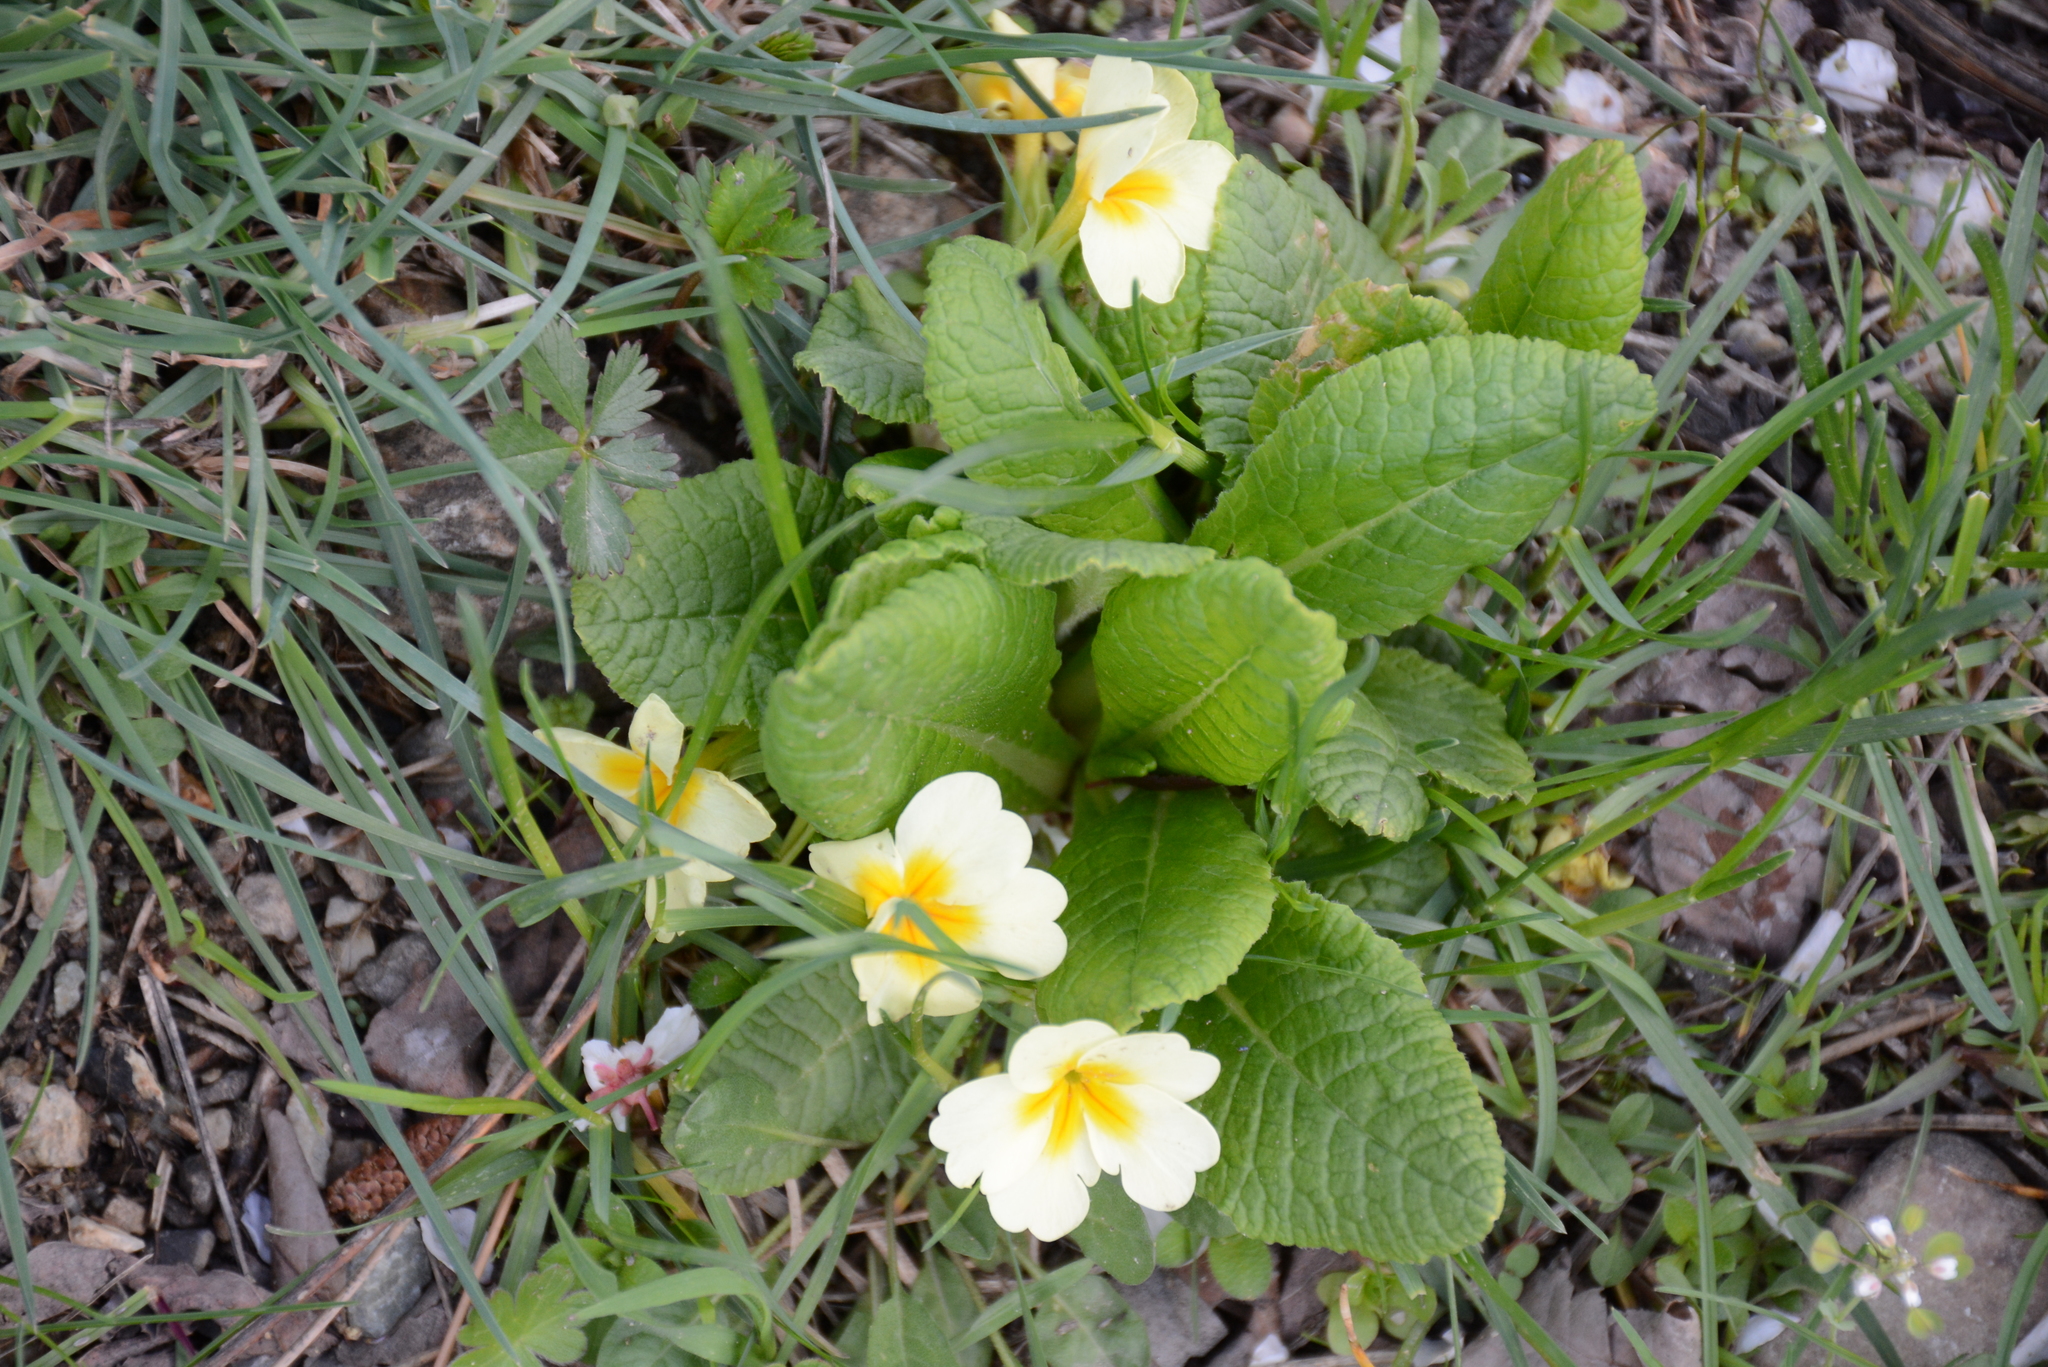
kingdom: Plantae
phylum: Tracheophyta
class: Magnoliopsida
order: Ericales
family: Primulaceae
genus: Primula
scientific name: Primula vulgaris
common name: Primrose
